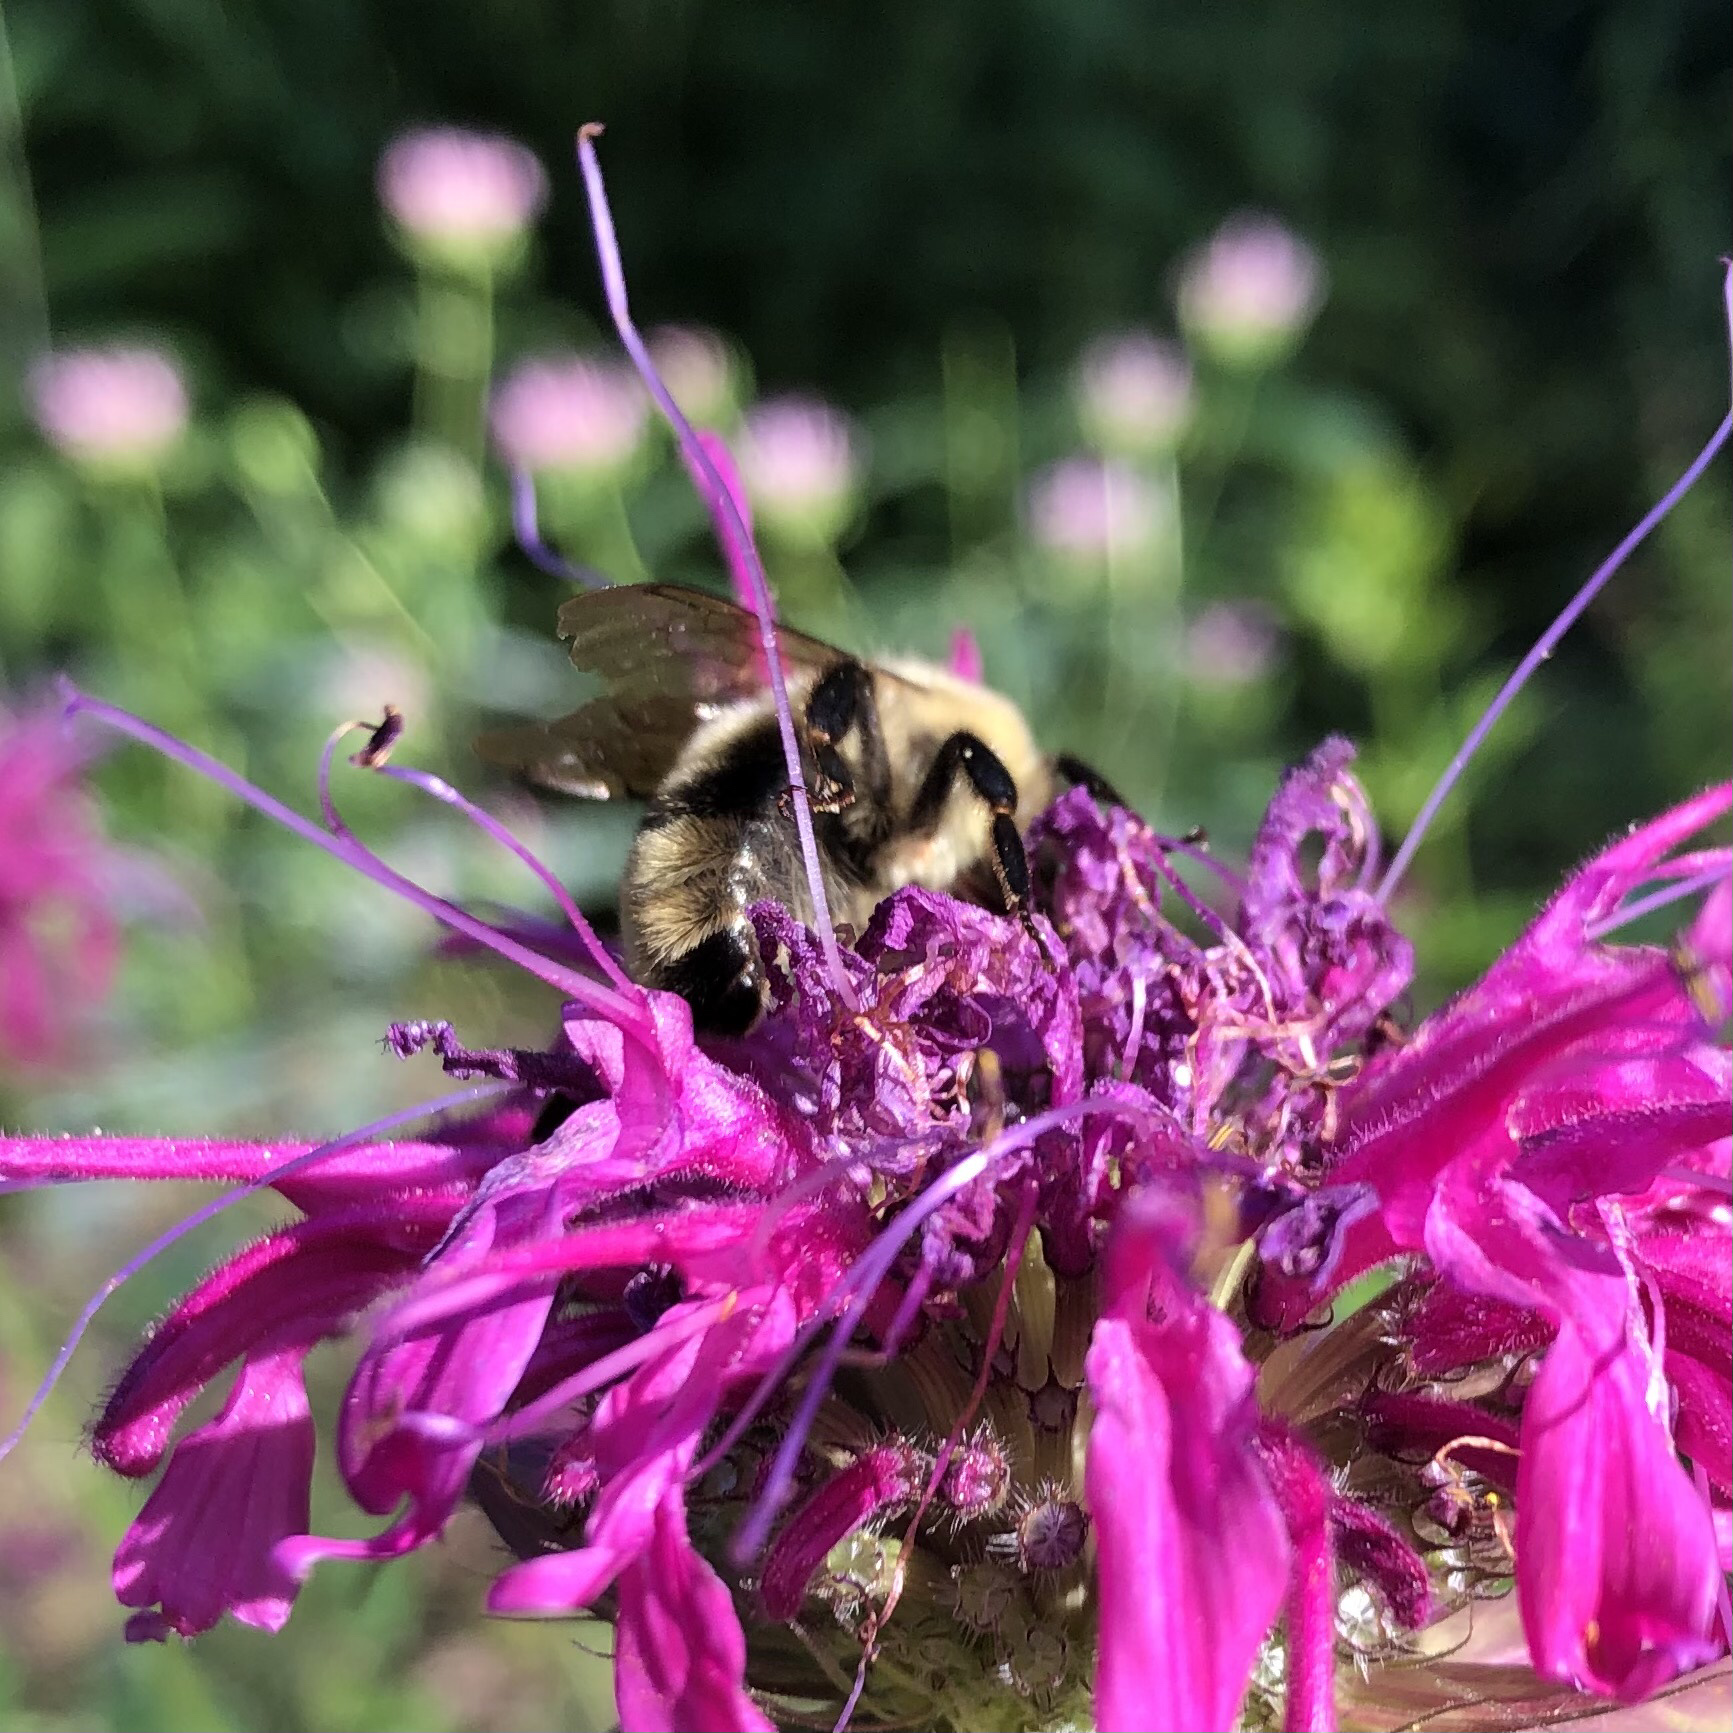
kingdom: Animalia
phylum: Arthropoda
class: Insecta
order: Hymenoptera
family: Apidae
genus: Bombus
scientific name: Bombus bimaculatus
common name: Two-spotted bumble bee
